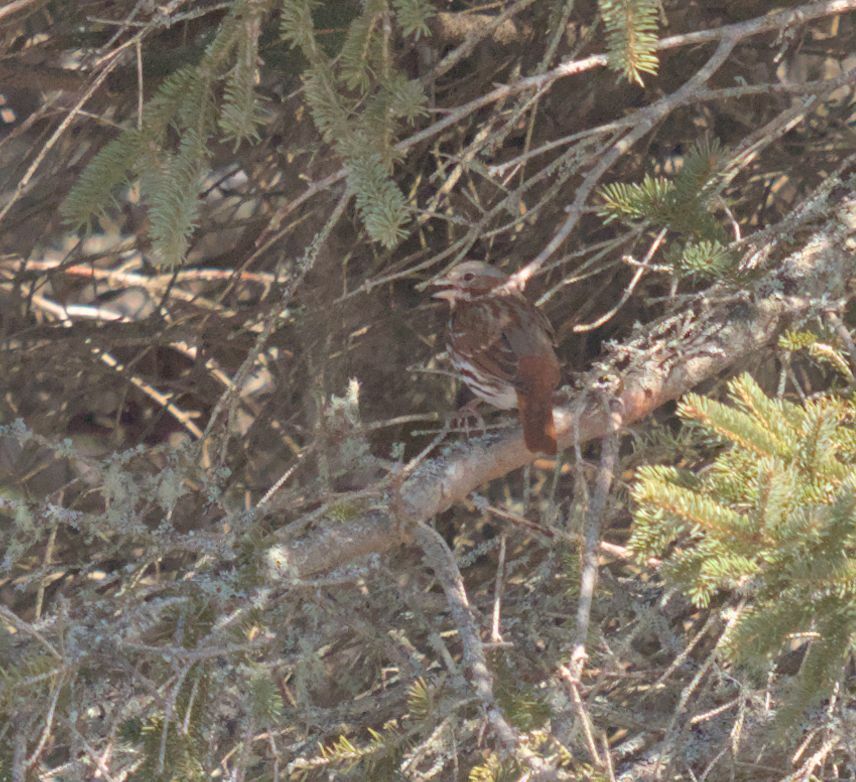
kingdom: Animalia
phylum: Chordata
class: Aves
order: Passeriformes
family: Passerellidae
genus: Passerella
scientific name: Passerella iliaca
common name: Fox sparrow
